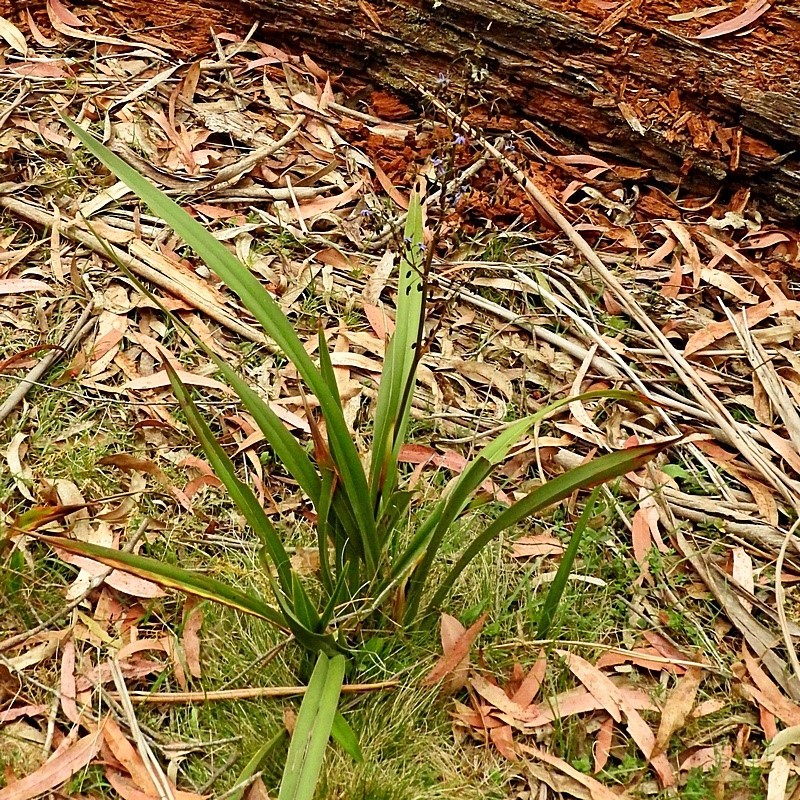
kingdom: Plantae
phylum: Tracheophyta
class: Liliopsida
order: Asparagales
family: Asphodelaceae
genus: Dianella
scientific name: Dianella tasmanica
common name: Tasman flax-lily
